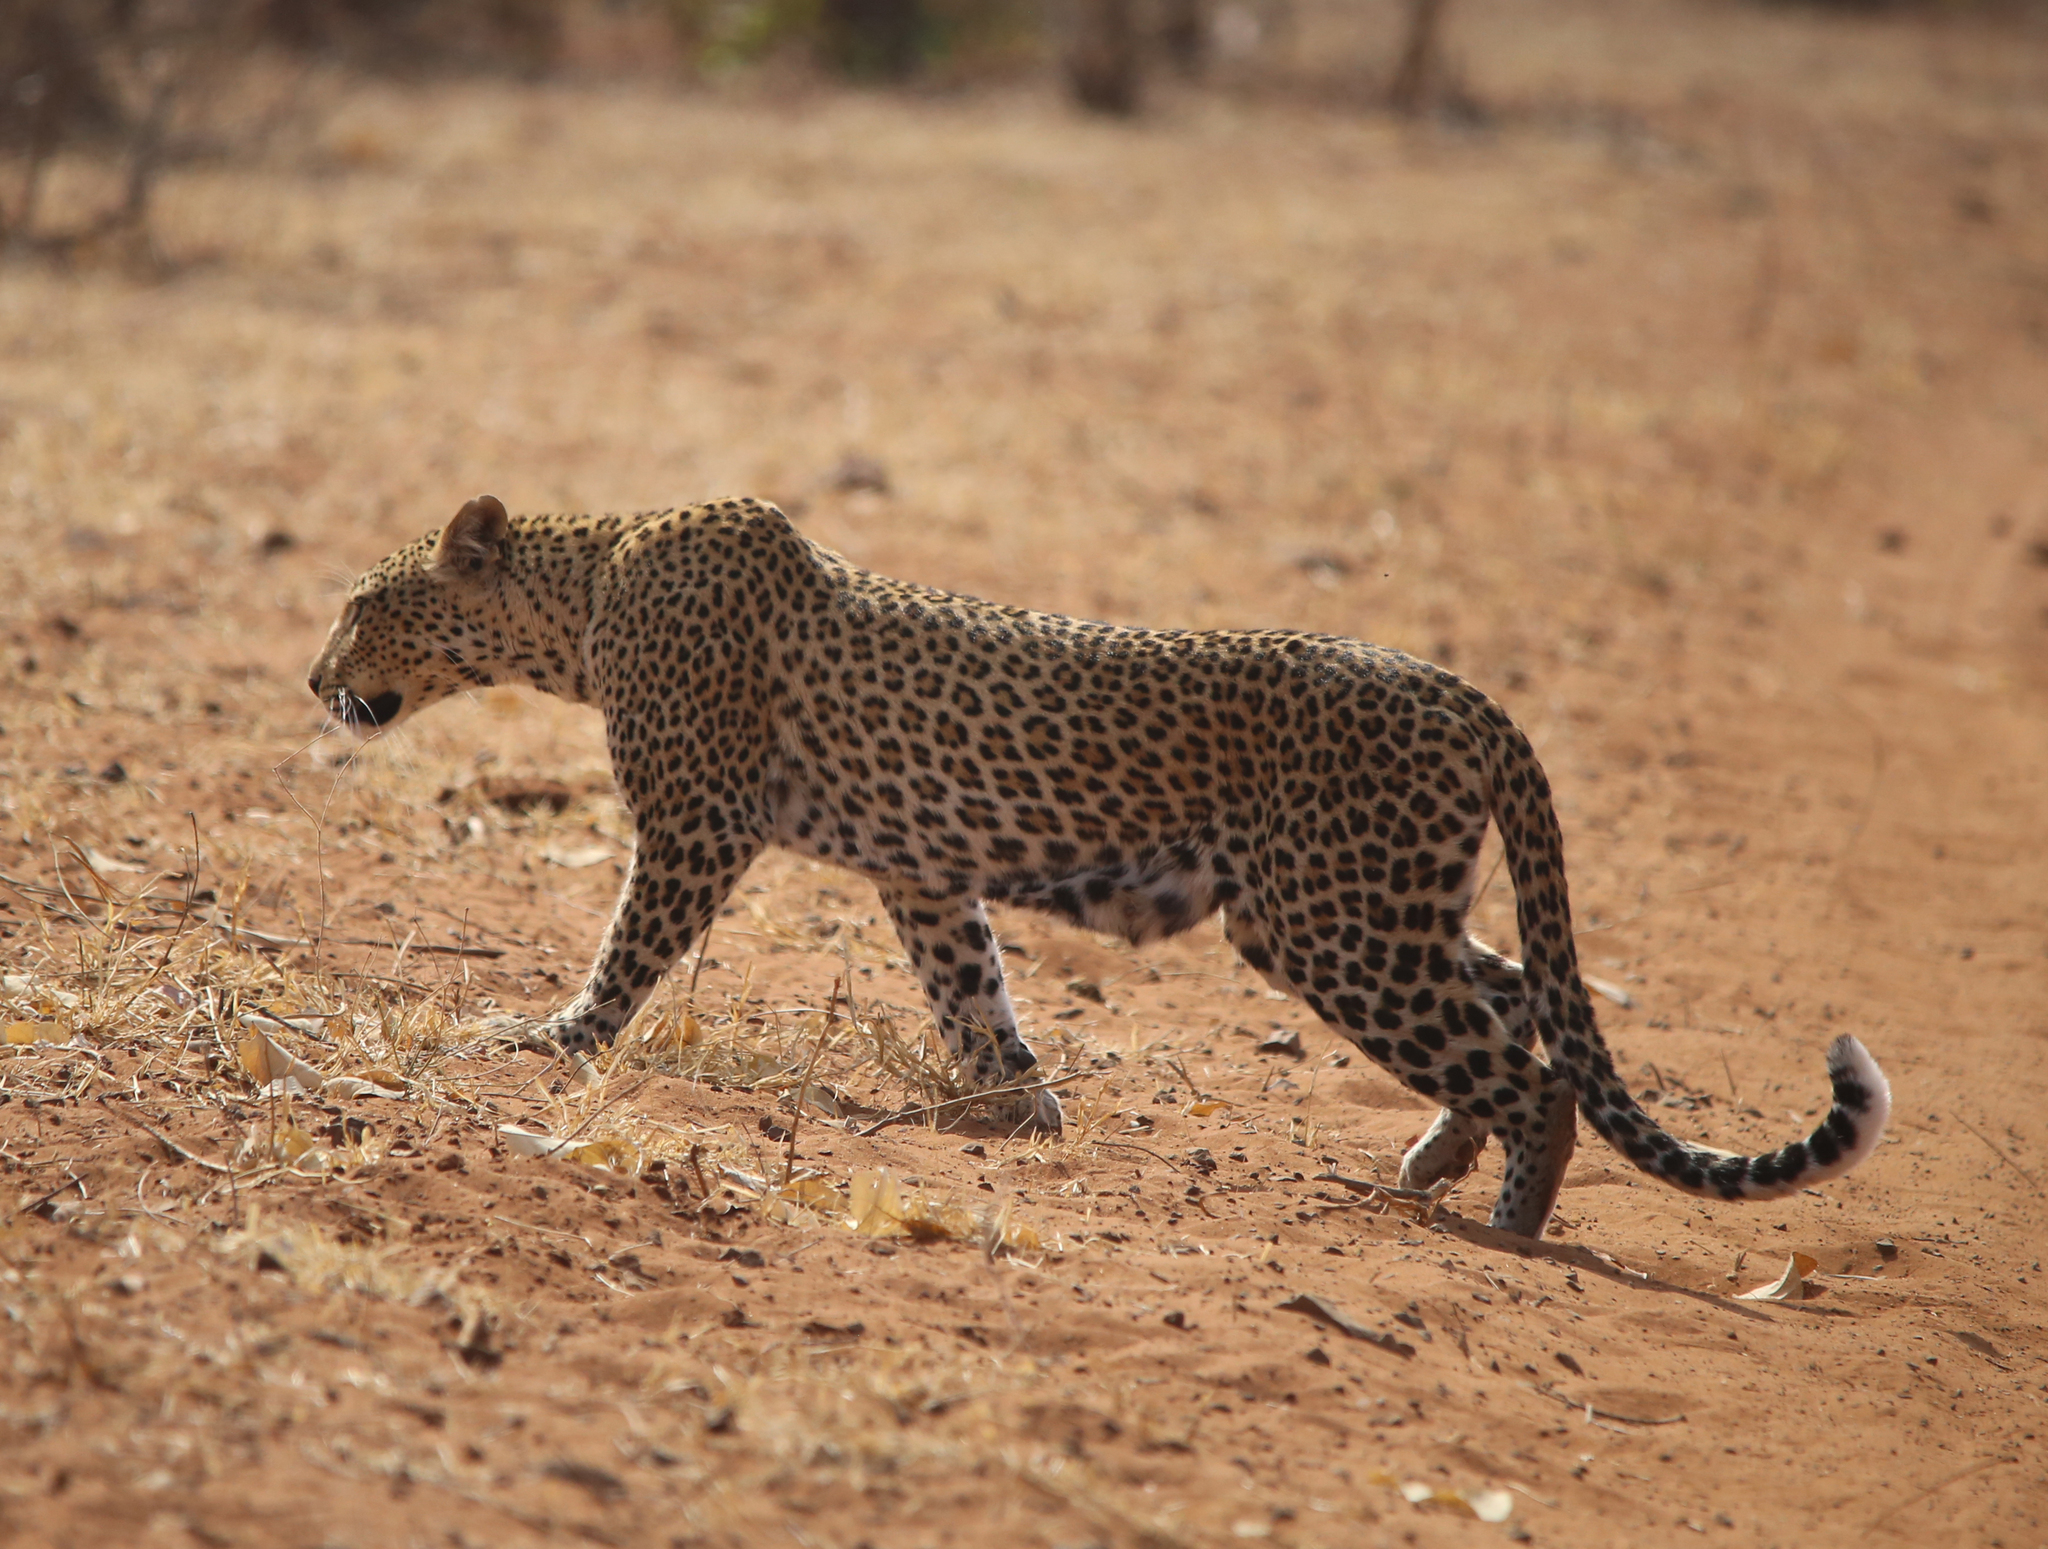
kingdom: Animalia
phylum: Chordata
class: Mammalia
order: Carnivora
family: Felidae
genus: Panthera
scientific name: Panthera pardus
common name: Leopard
